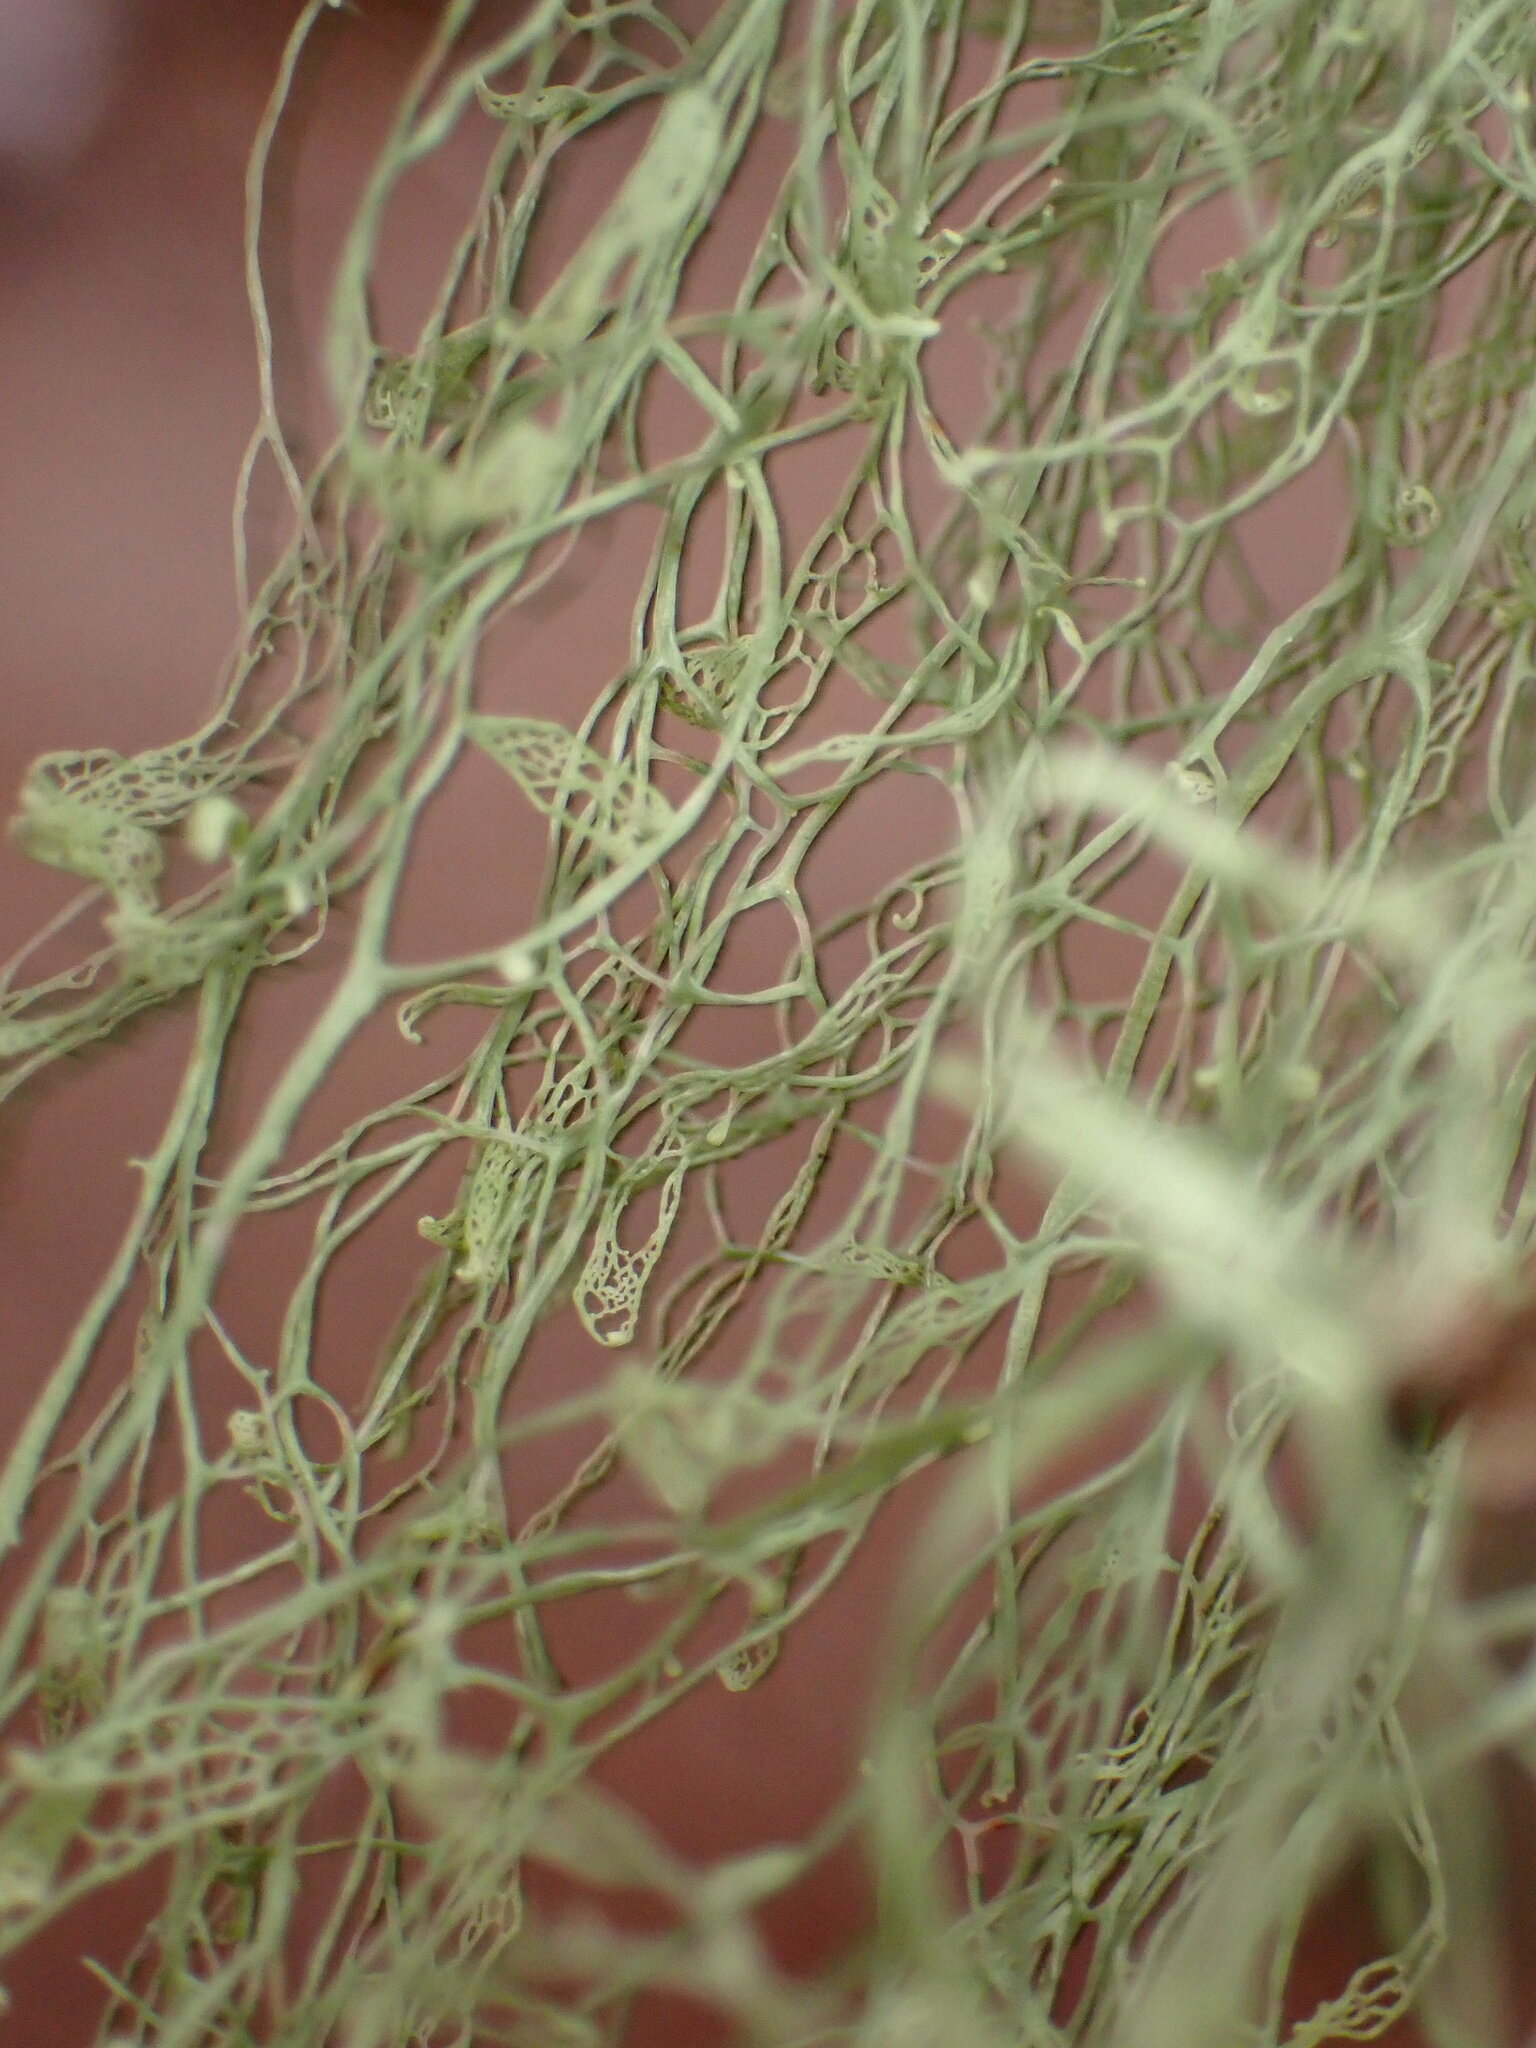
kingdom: Fungi
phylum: Ascomycota
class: Lecanoromycetes
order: Lecanorales
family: Ramalinaceae
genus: Ramalina
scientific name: Ramalina menziesii
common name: Lace lichen
